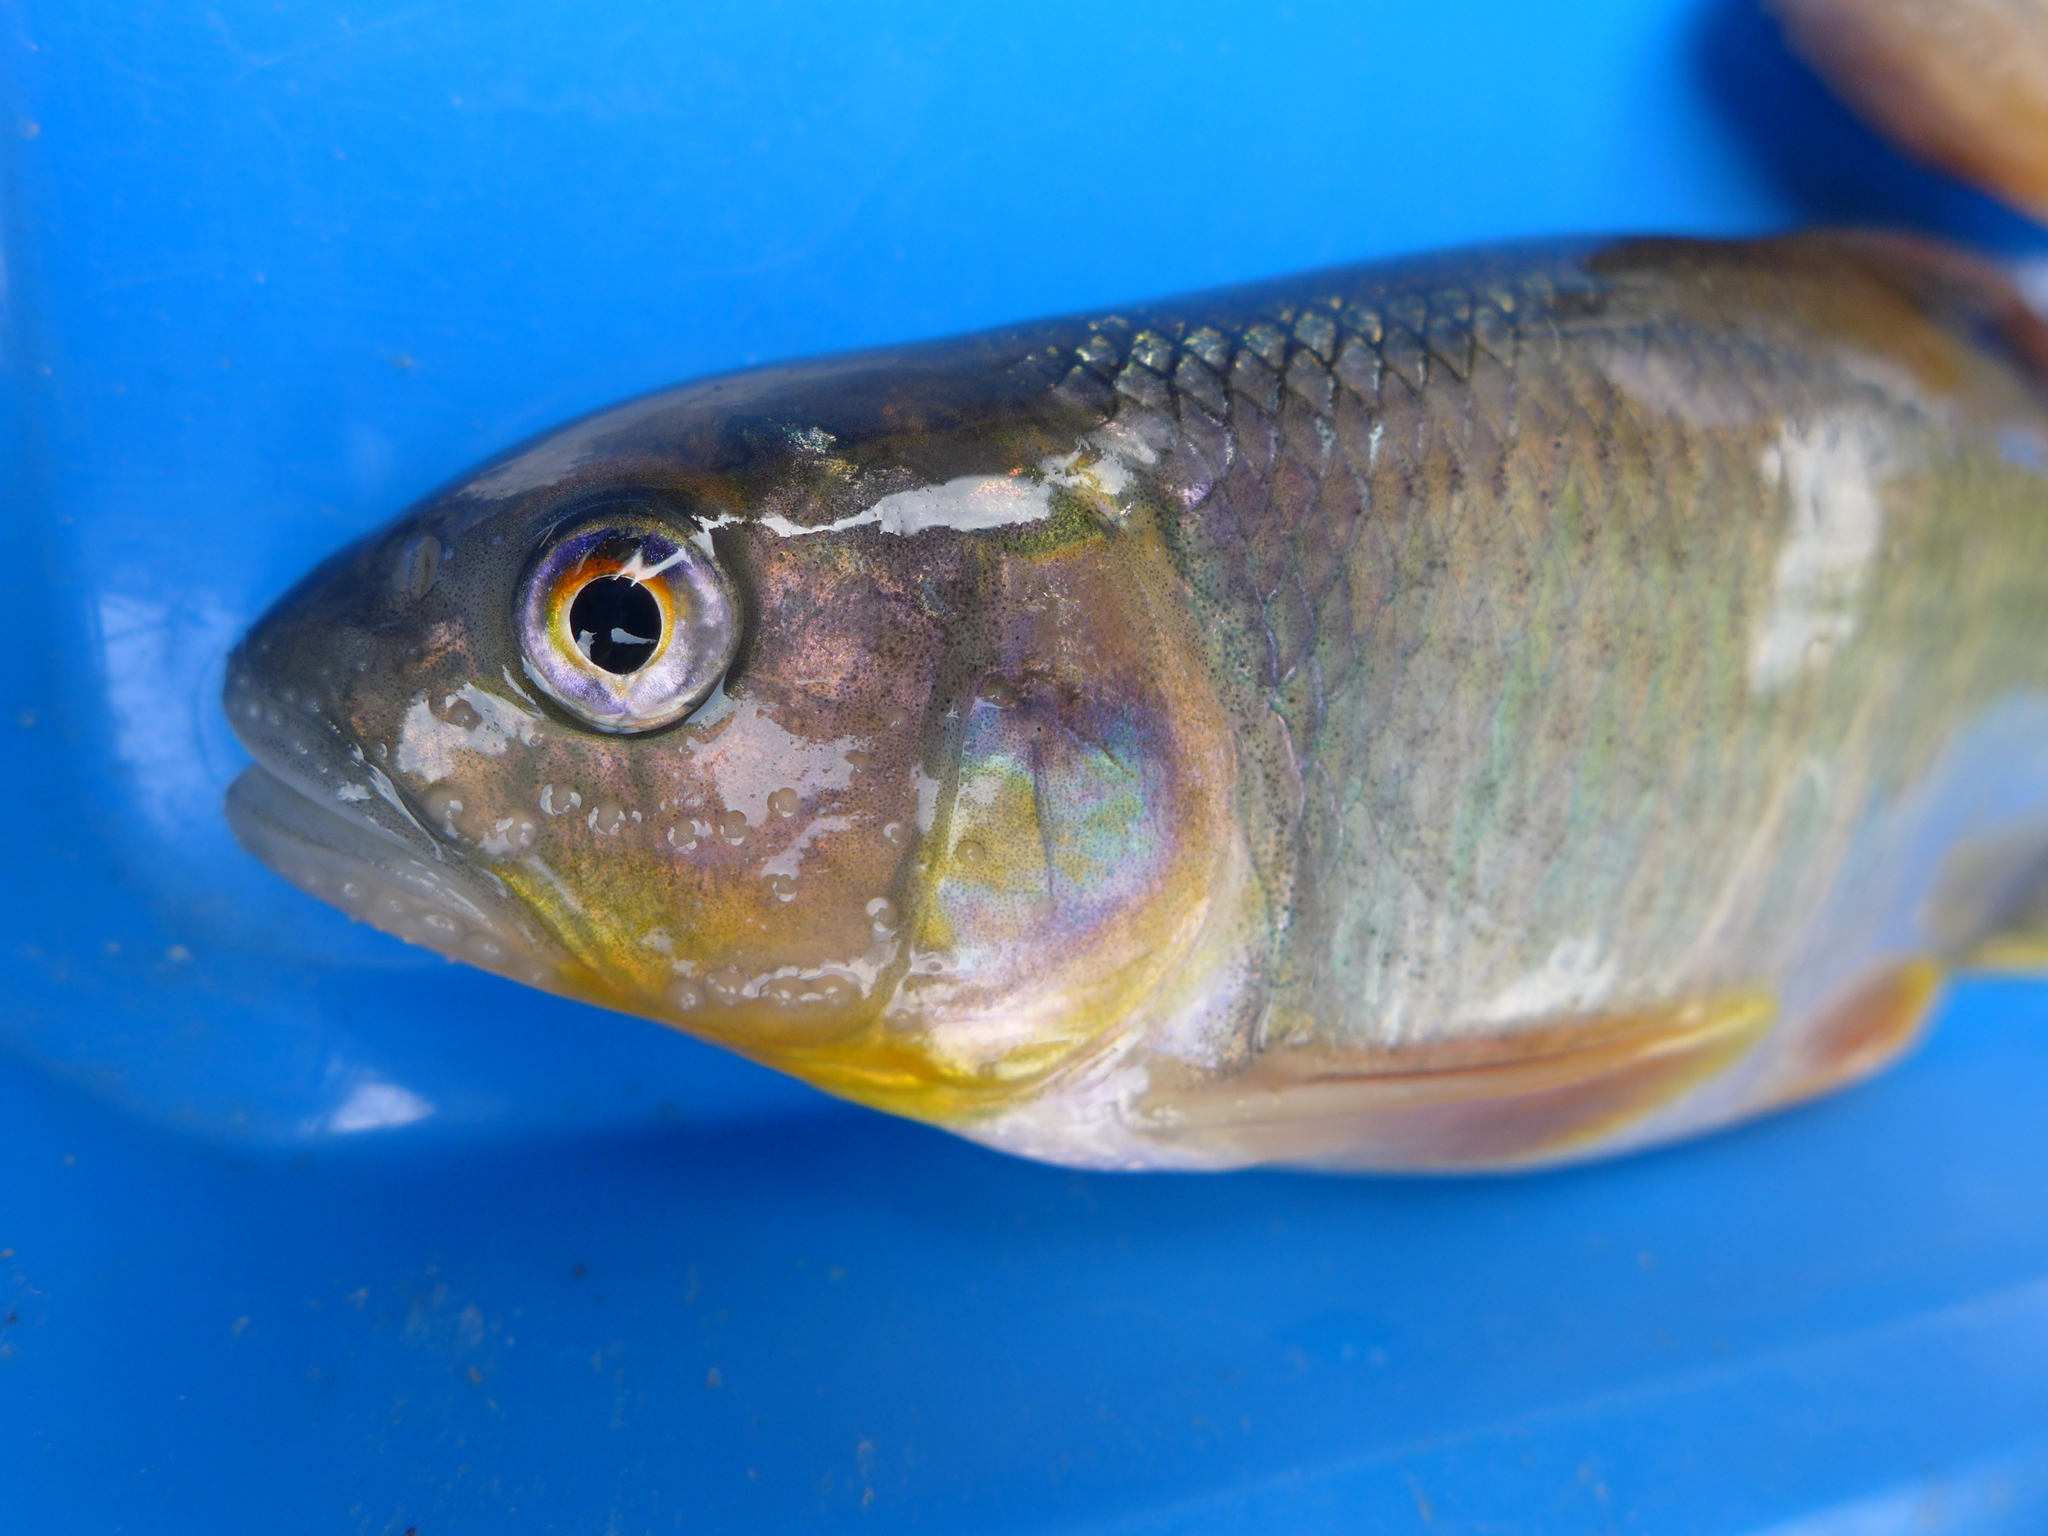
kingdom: Animalia
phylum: Chordata
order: Cypriniformes
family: Cyprinidae
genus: Opsariichthys
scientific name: Opsariichthys pachycephalus
